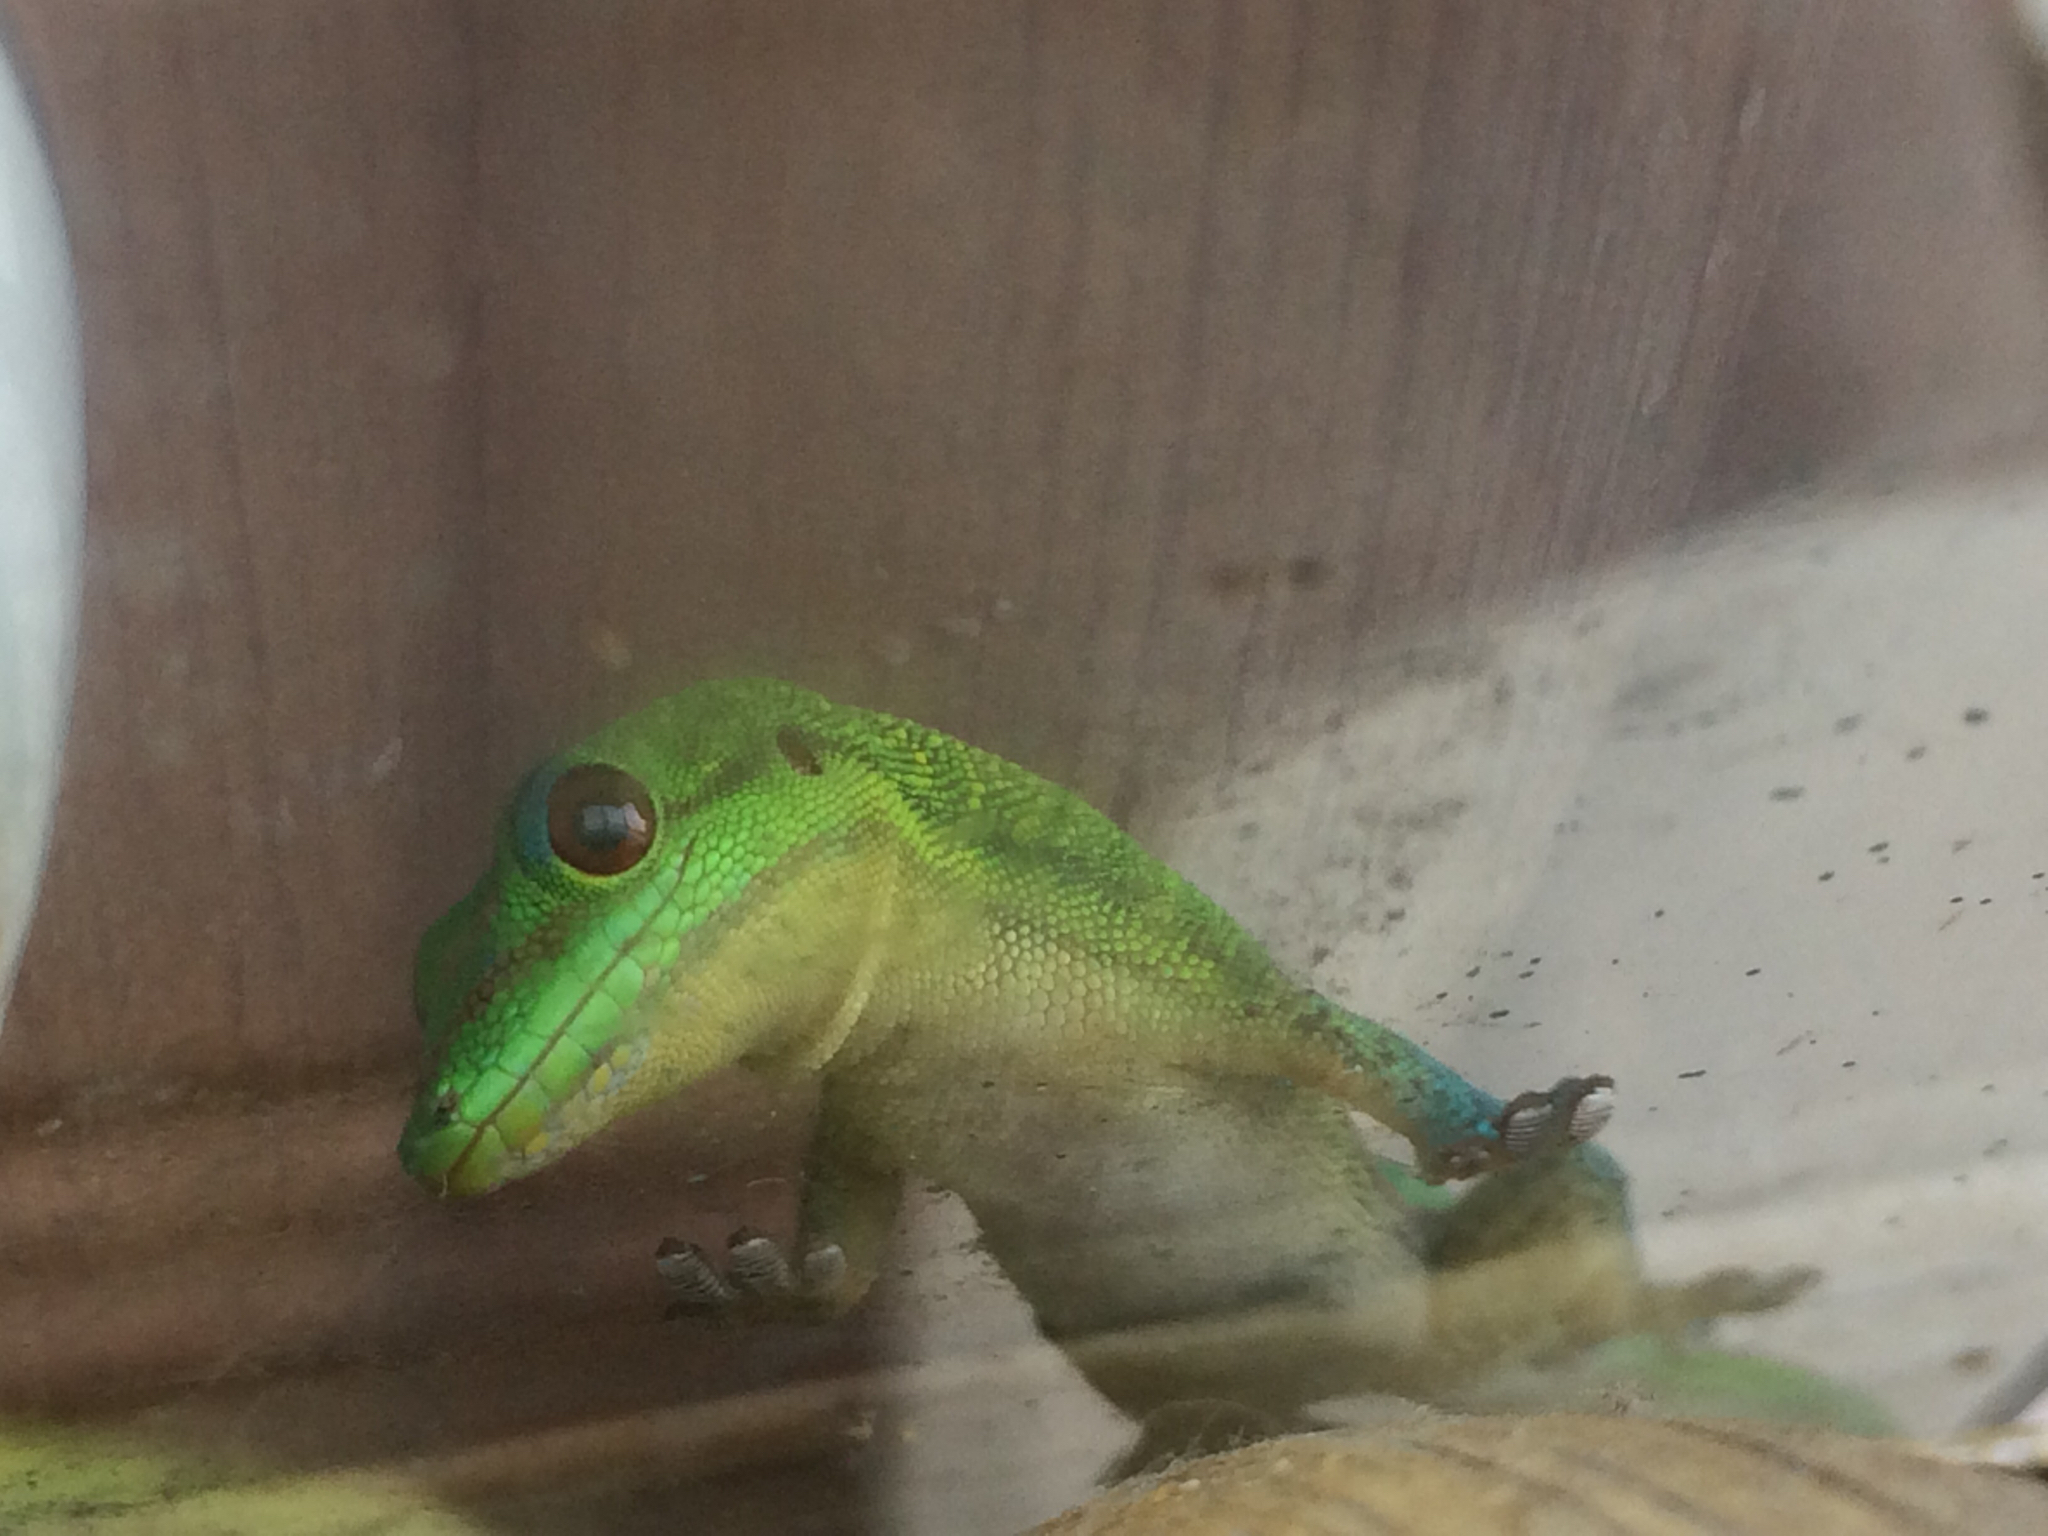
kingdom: Animalia
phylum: Chordata
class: Squamata
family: Gekkonidae
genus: Phelsuma
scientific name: Phelsuma laticauda
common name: Gold dust day gecko
